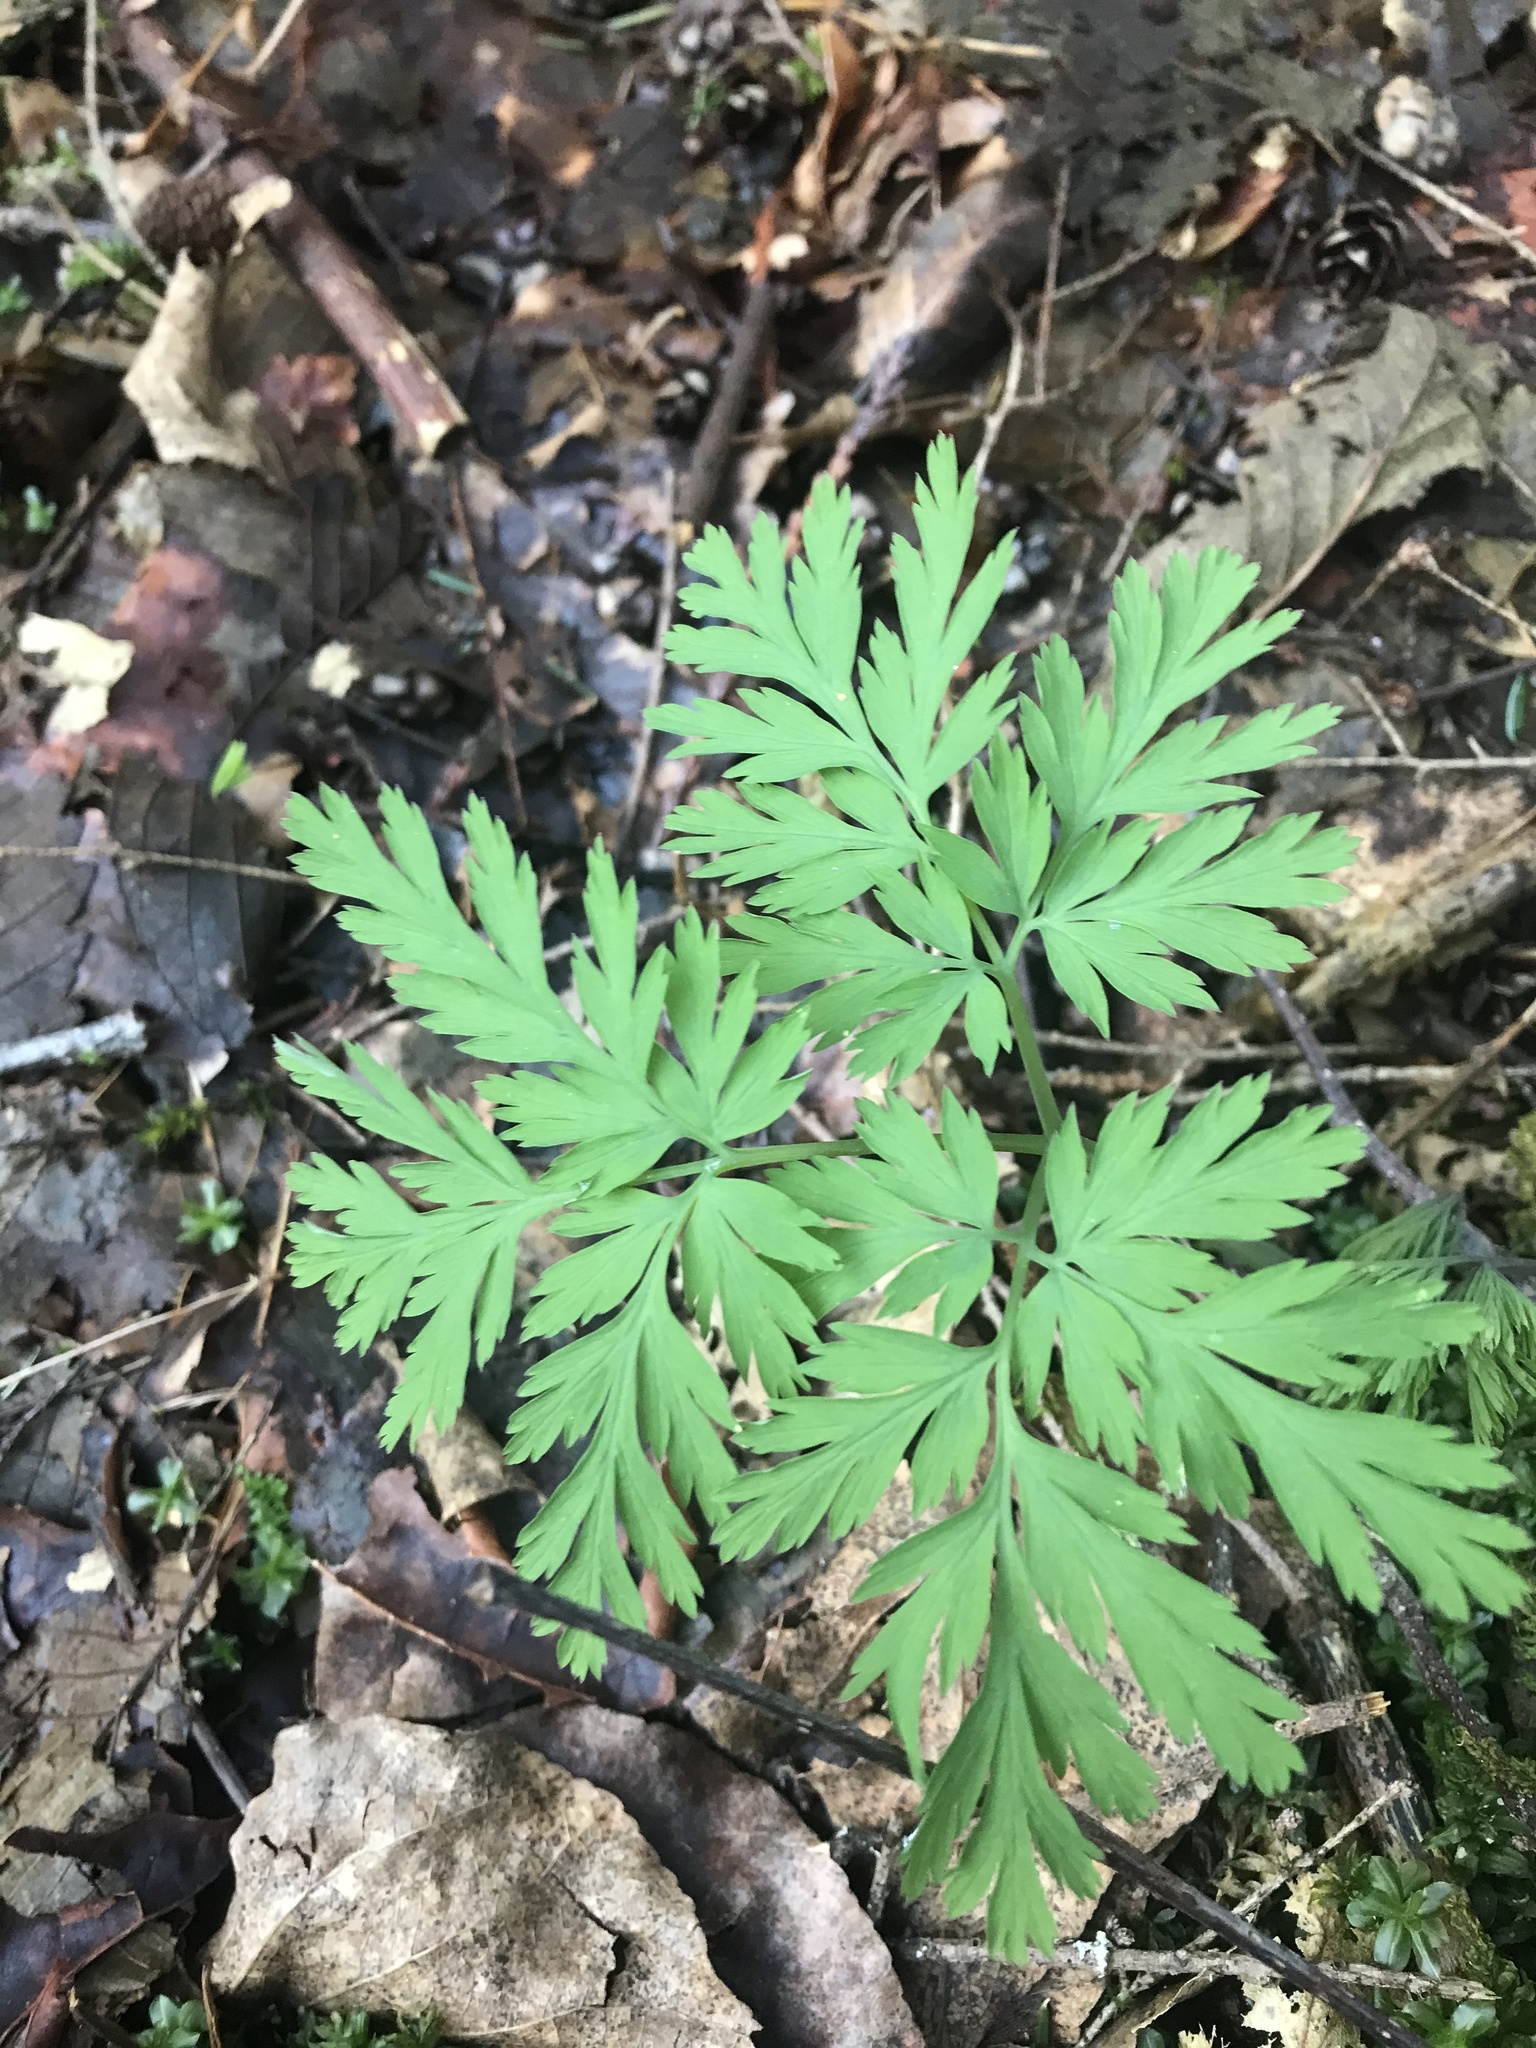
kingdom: Plantae
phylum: Tracheophyta
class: Magnoliopsida
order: Ranunculales
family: Papaveraceae
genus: Dicentra
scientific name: Dicentra formosa
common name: Bleeding-heart
